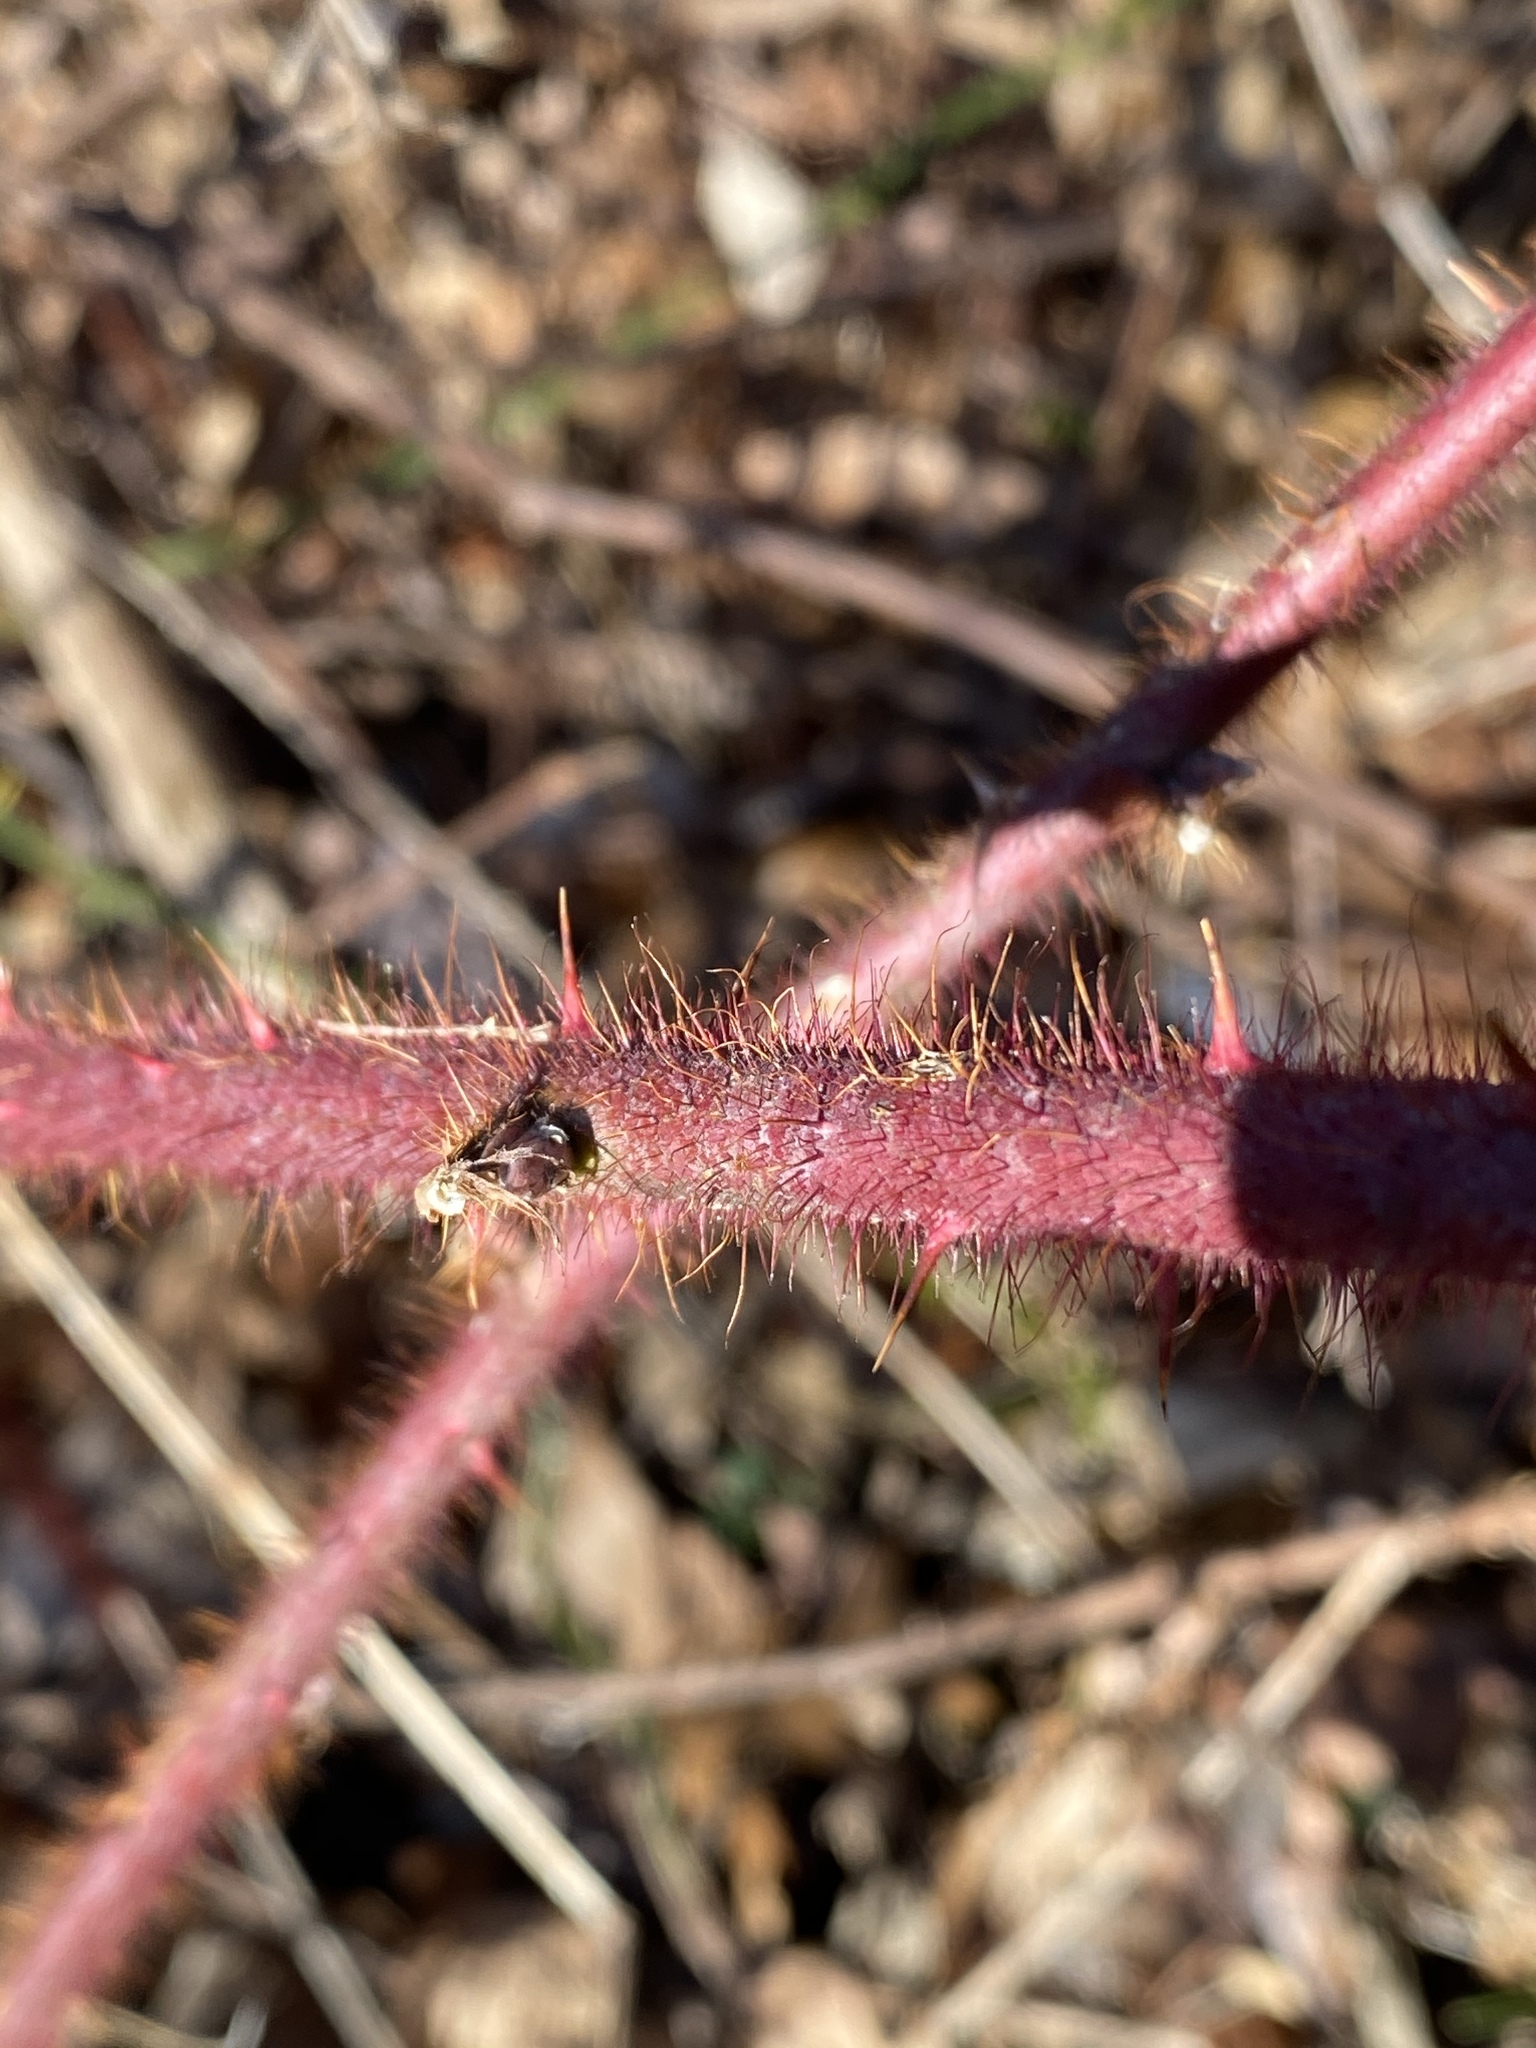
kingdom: Plantae
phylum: Tracheophyta
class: Magnoliopsida
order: Rosales
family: Rosaceae
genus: Rubus
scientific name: Rubus phoenicolasius
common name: Japanese wineberry
